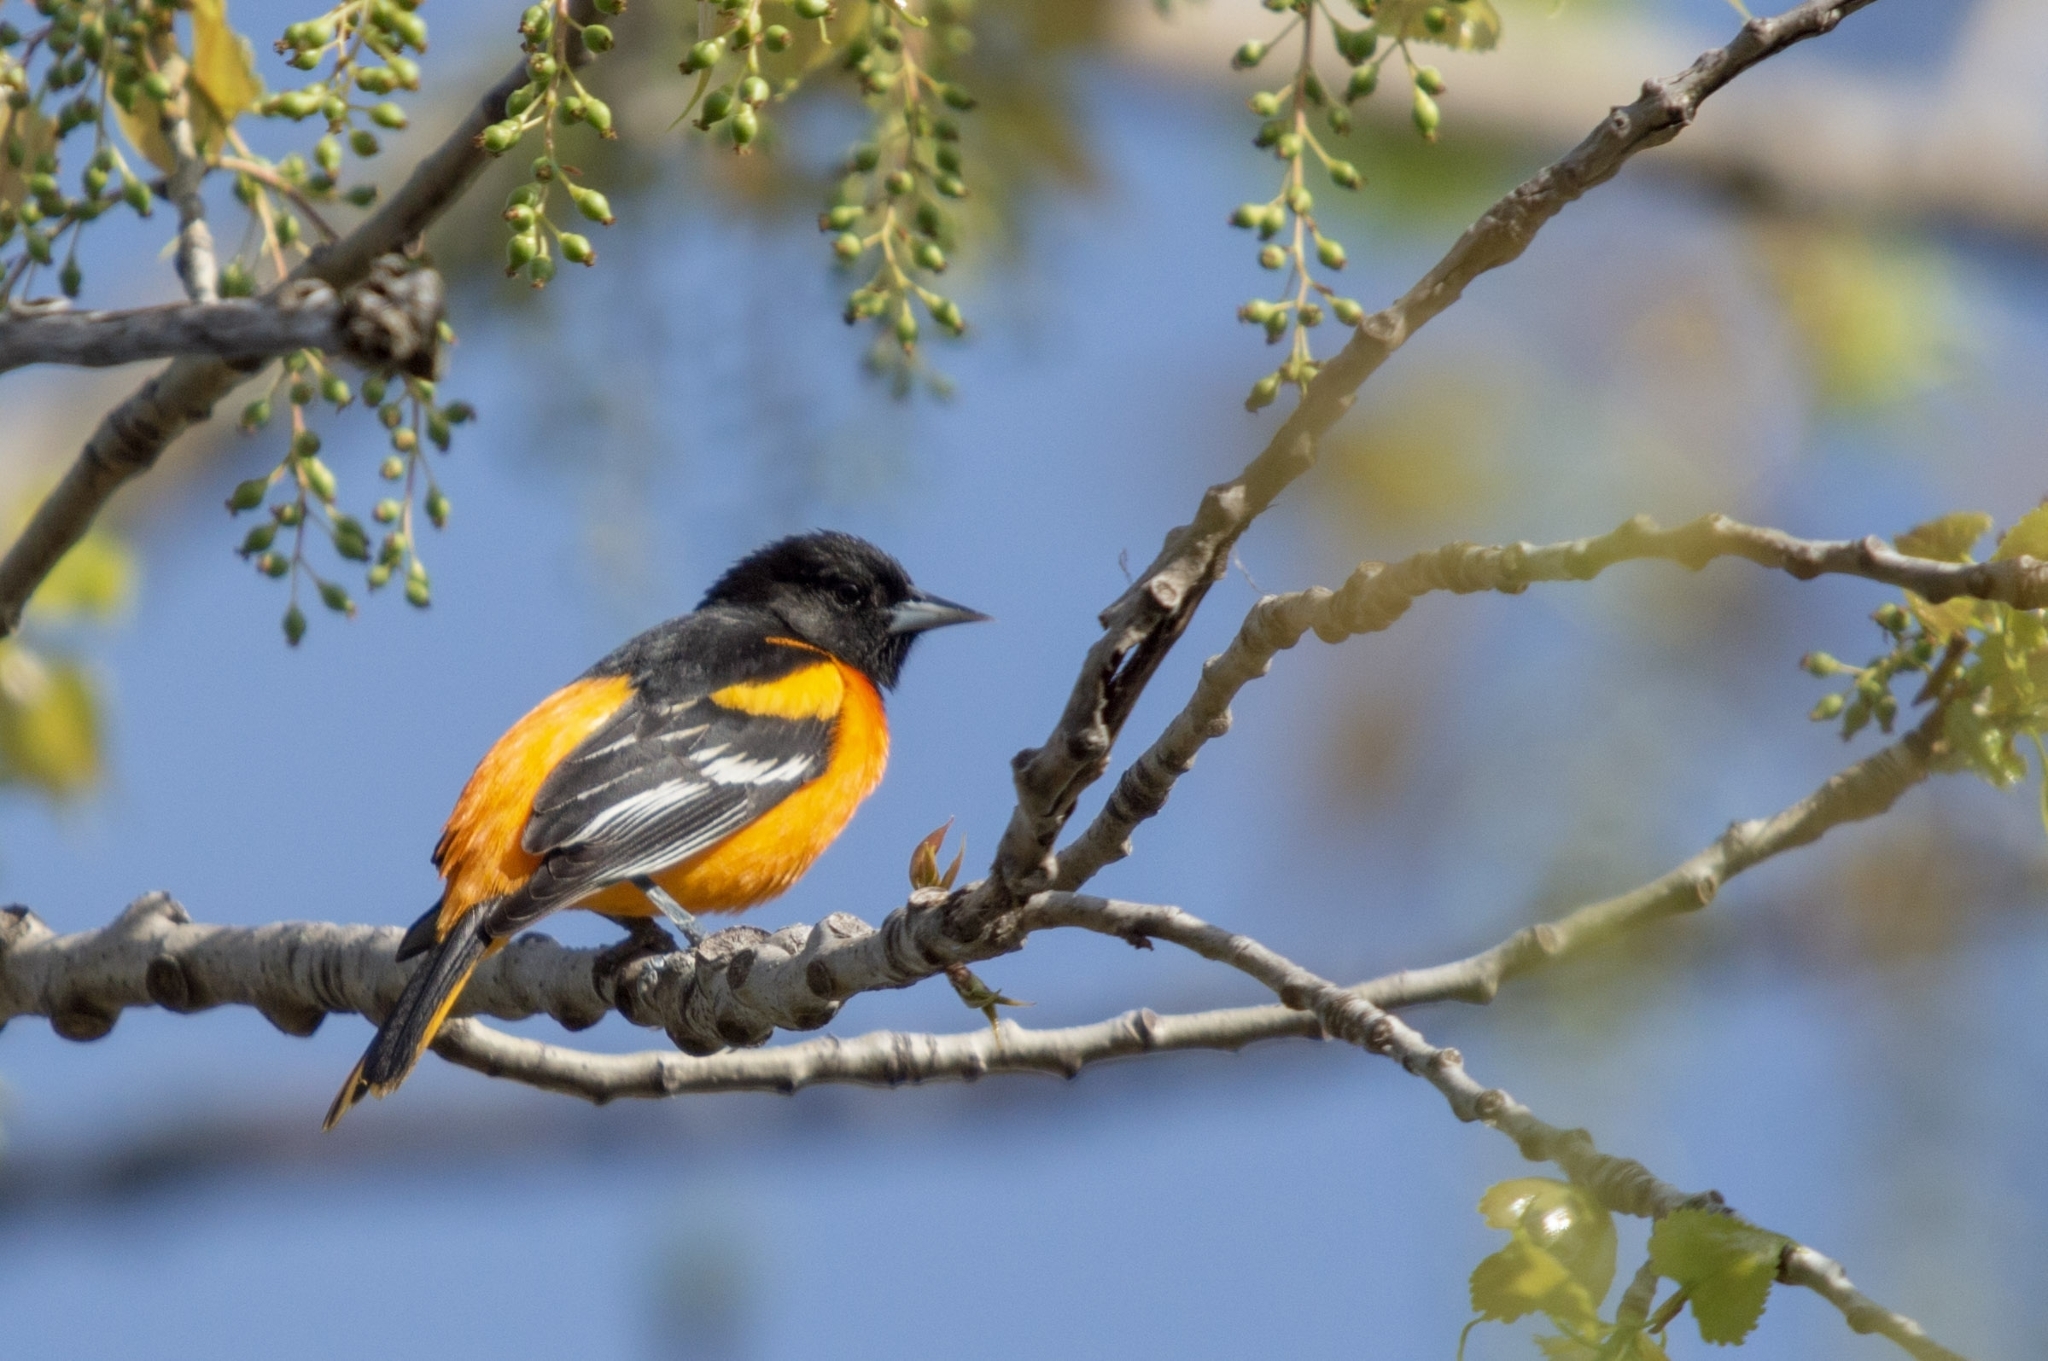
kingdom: Animalia
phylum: Chordata
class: Aves
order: Passeriformes
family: Icteridae
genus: Icterus
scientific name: Icterus galbula
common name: Baltimore oriole
